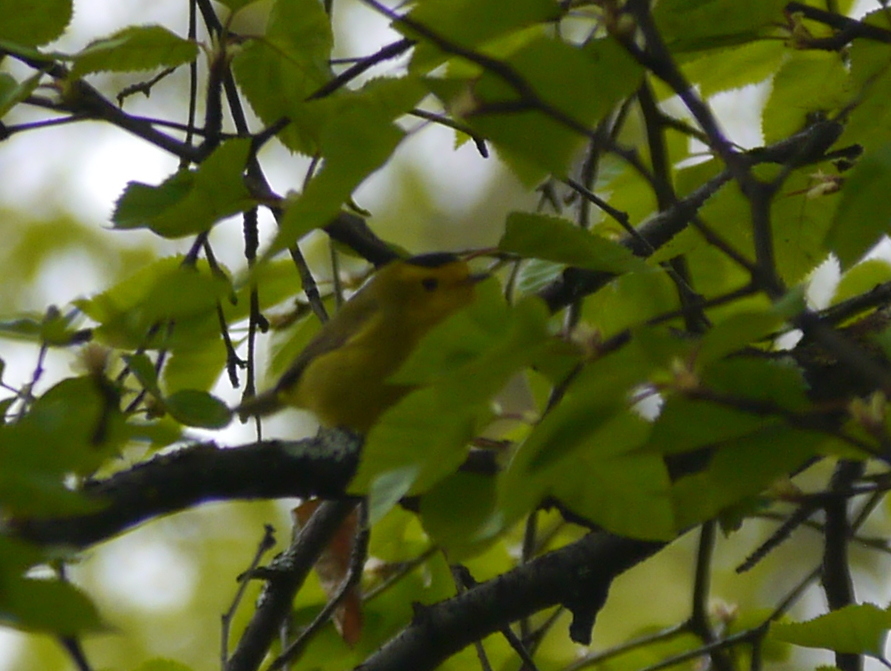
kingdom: Animalia
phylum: Chordata
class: Aves
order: Passeriformes
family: Parulidae
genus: Cardellina
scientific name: Cardellina pusilla
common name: Wilson's warbler
